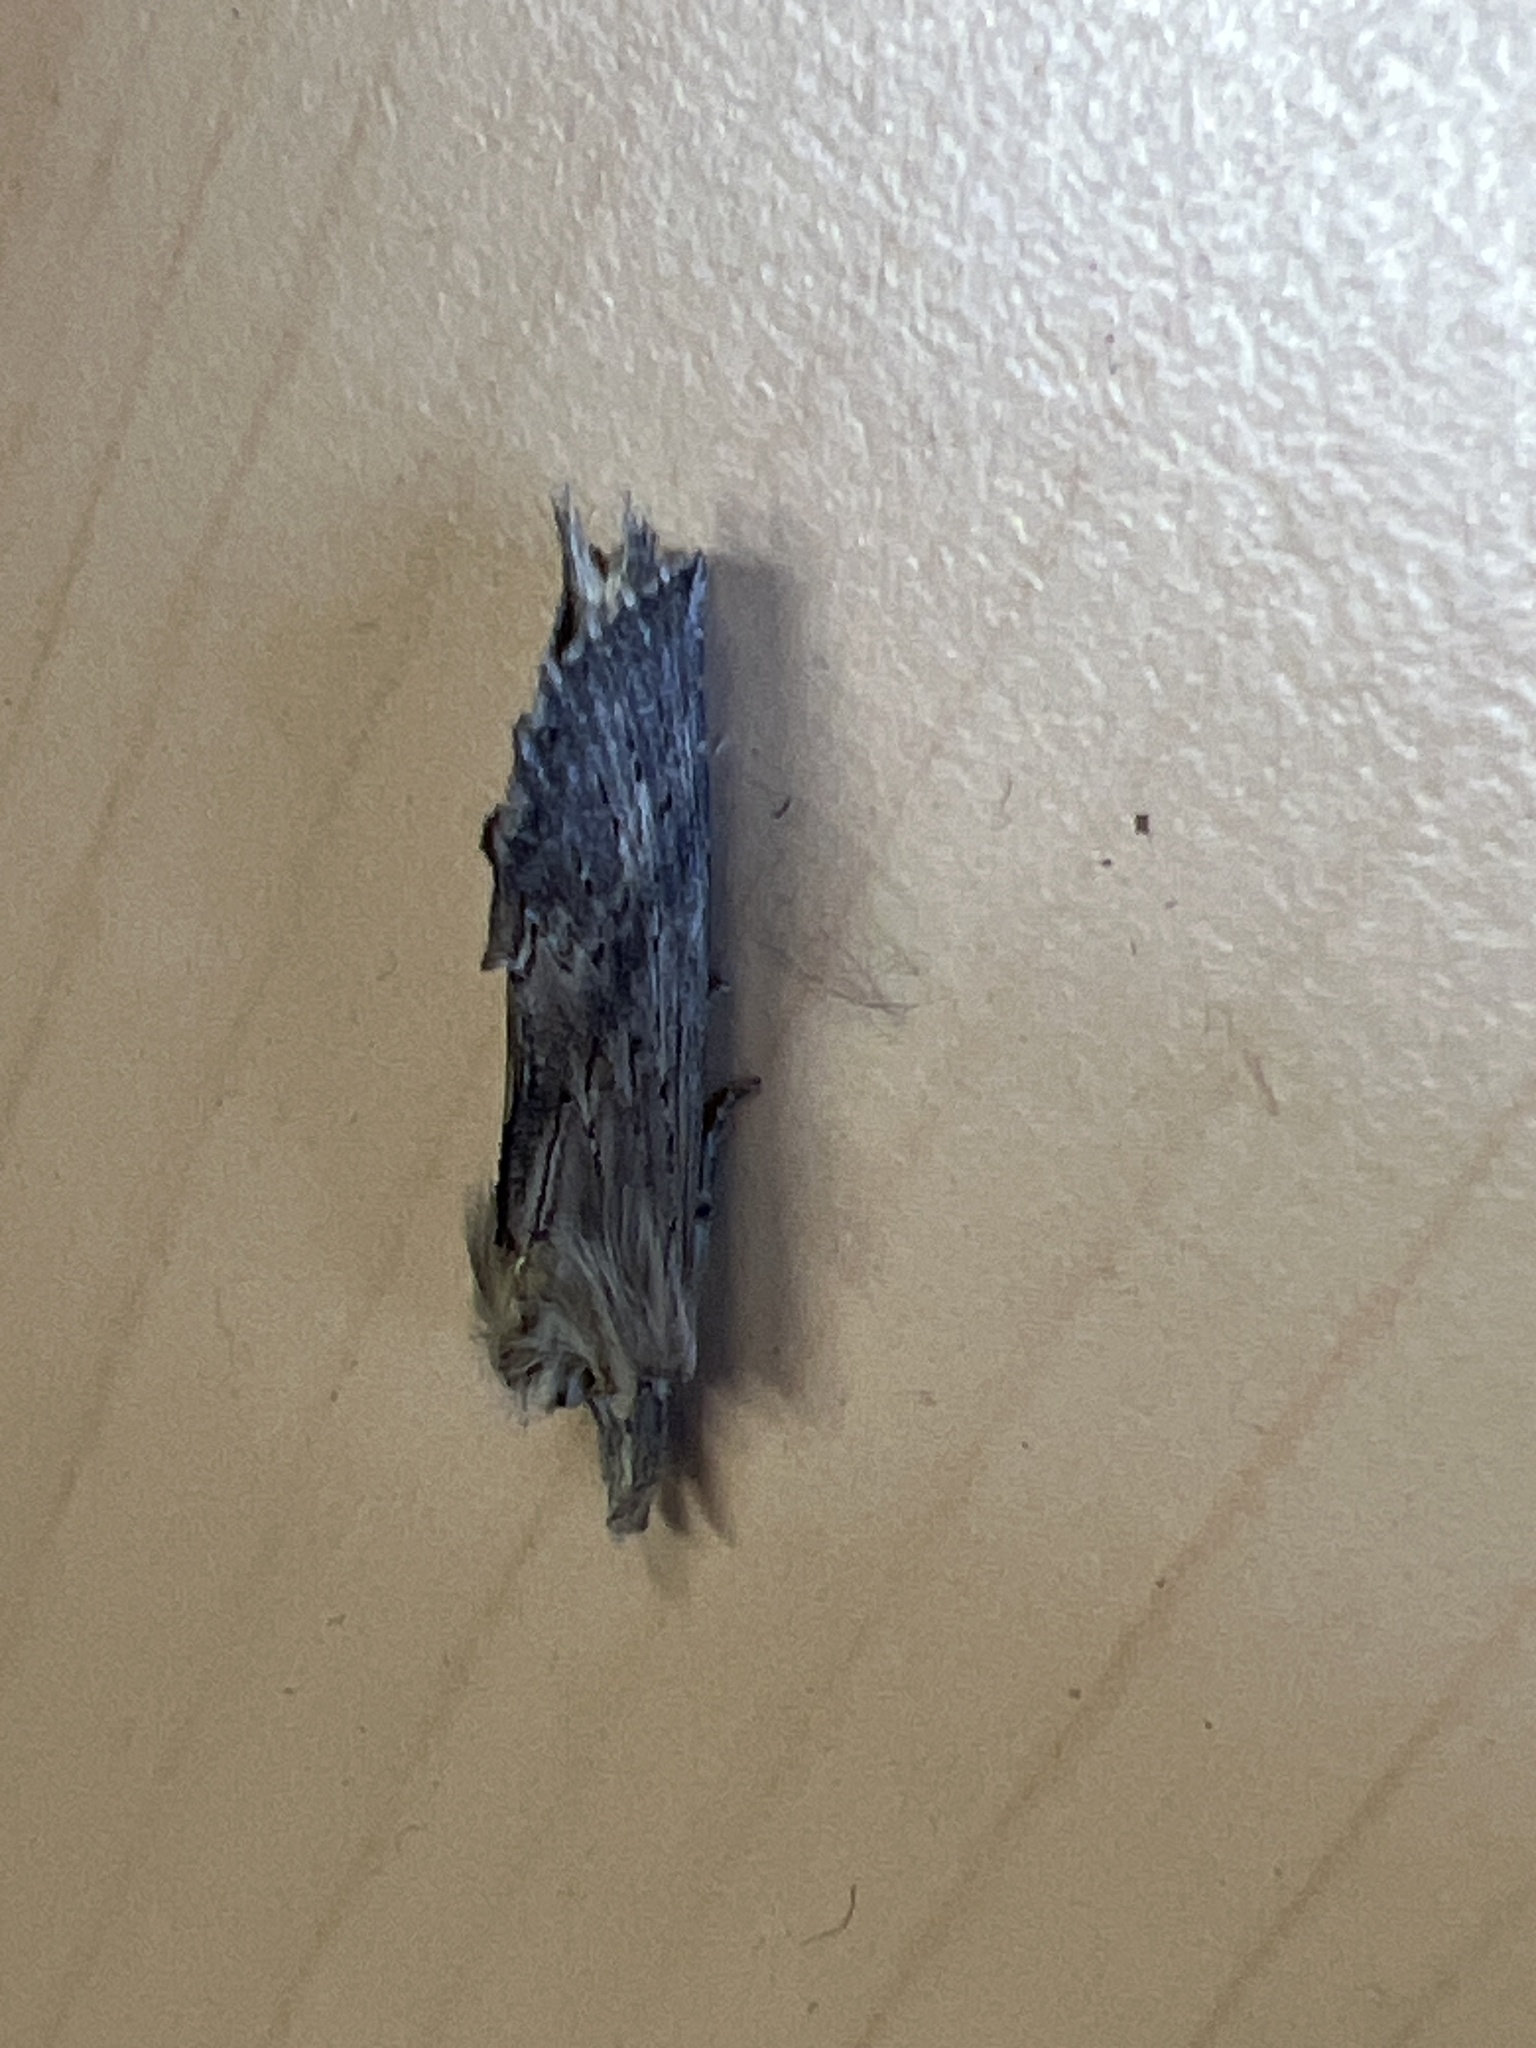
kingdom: Animalia
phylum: Arthropoda
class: Insecta
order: Lepidoptera
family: Notodontidae
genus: Pterostoma
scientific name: Pterostoma palpina
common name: Pale prominent
